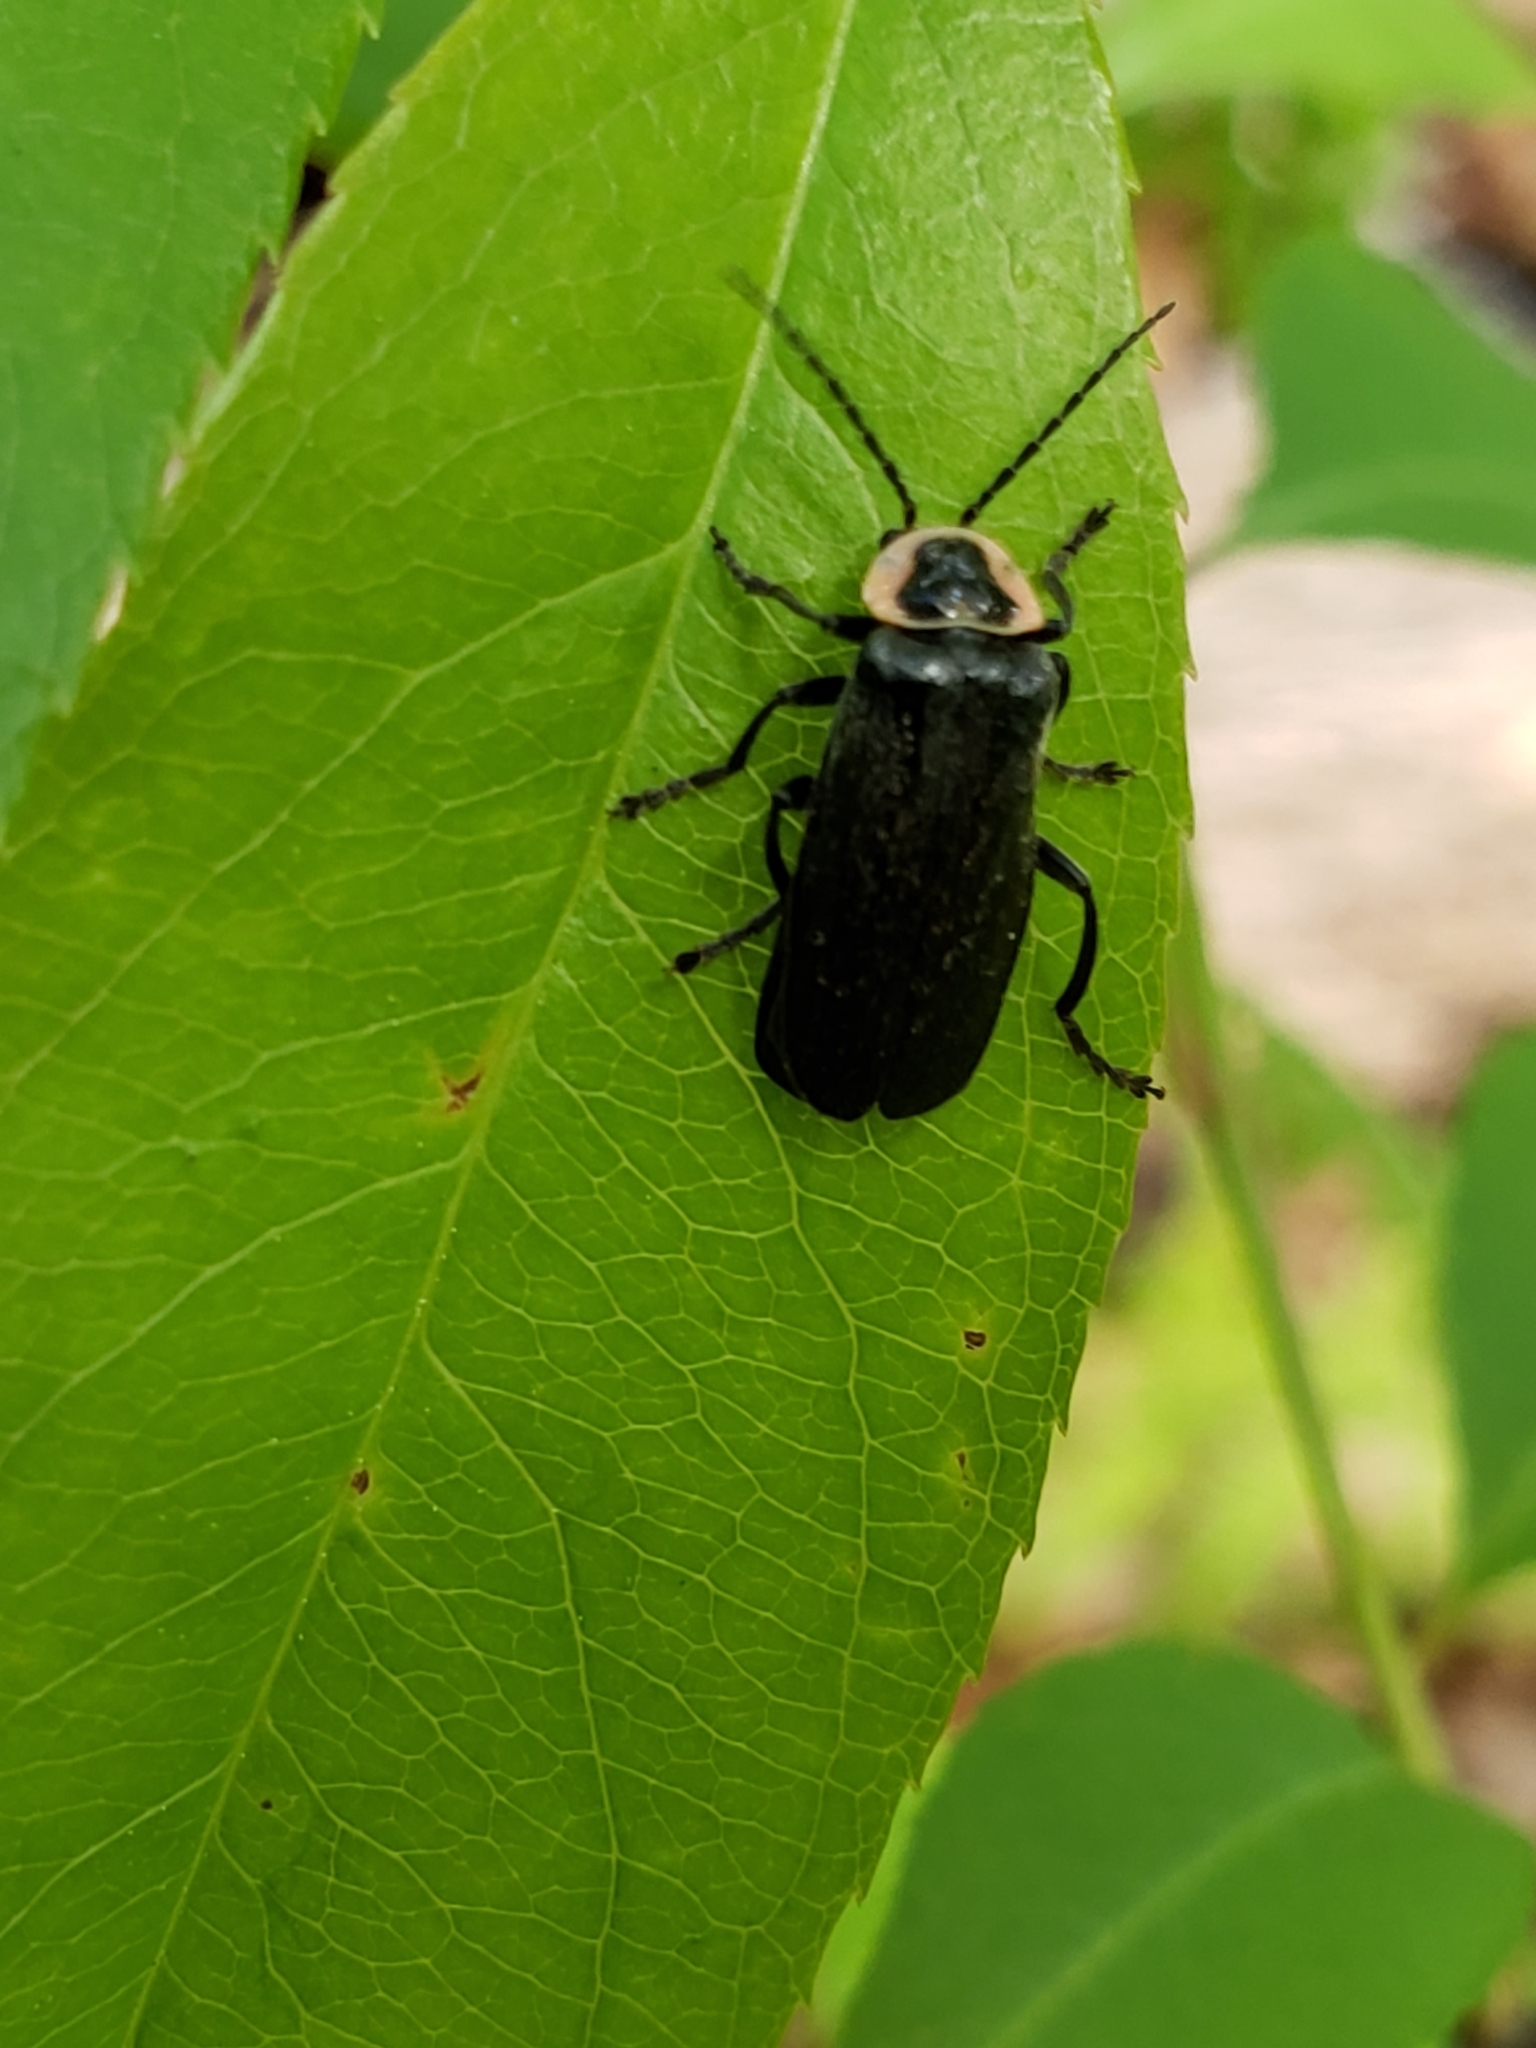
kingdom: Animalia
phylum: Arthropoda
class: Insecta
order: Coleoptera
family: Cantharidae
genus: Atalantycha
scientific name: Atalantycha neglecta
